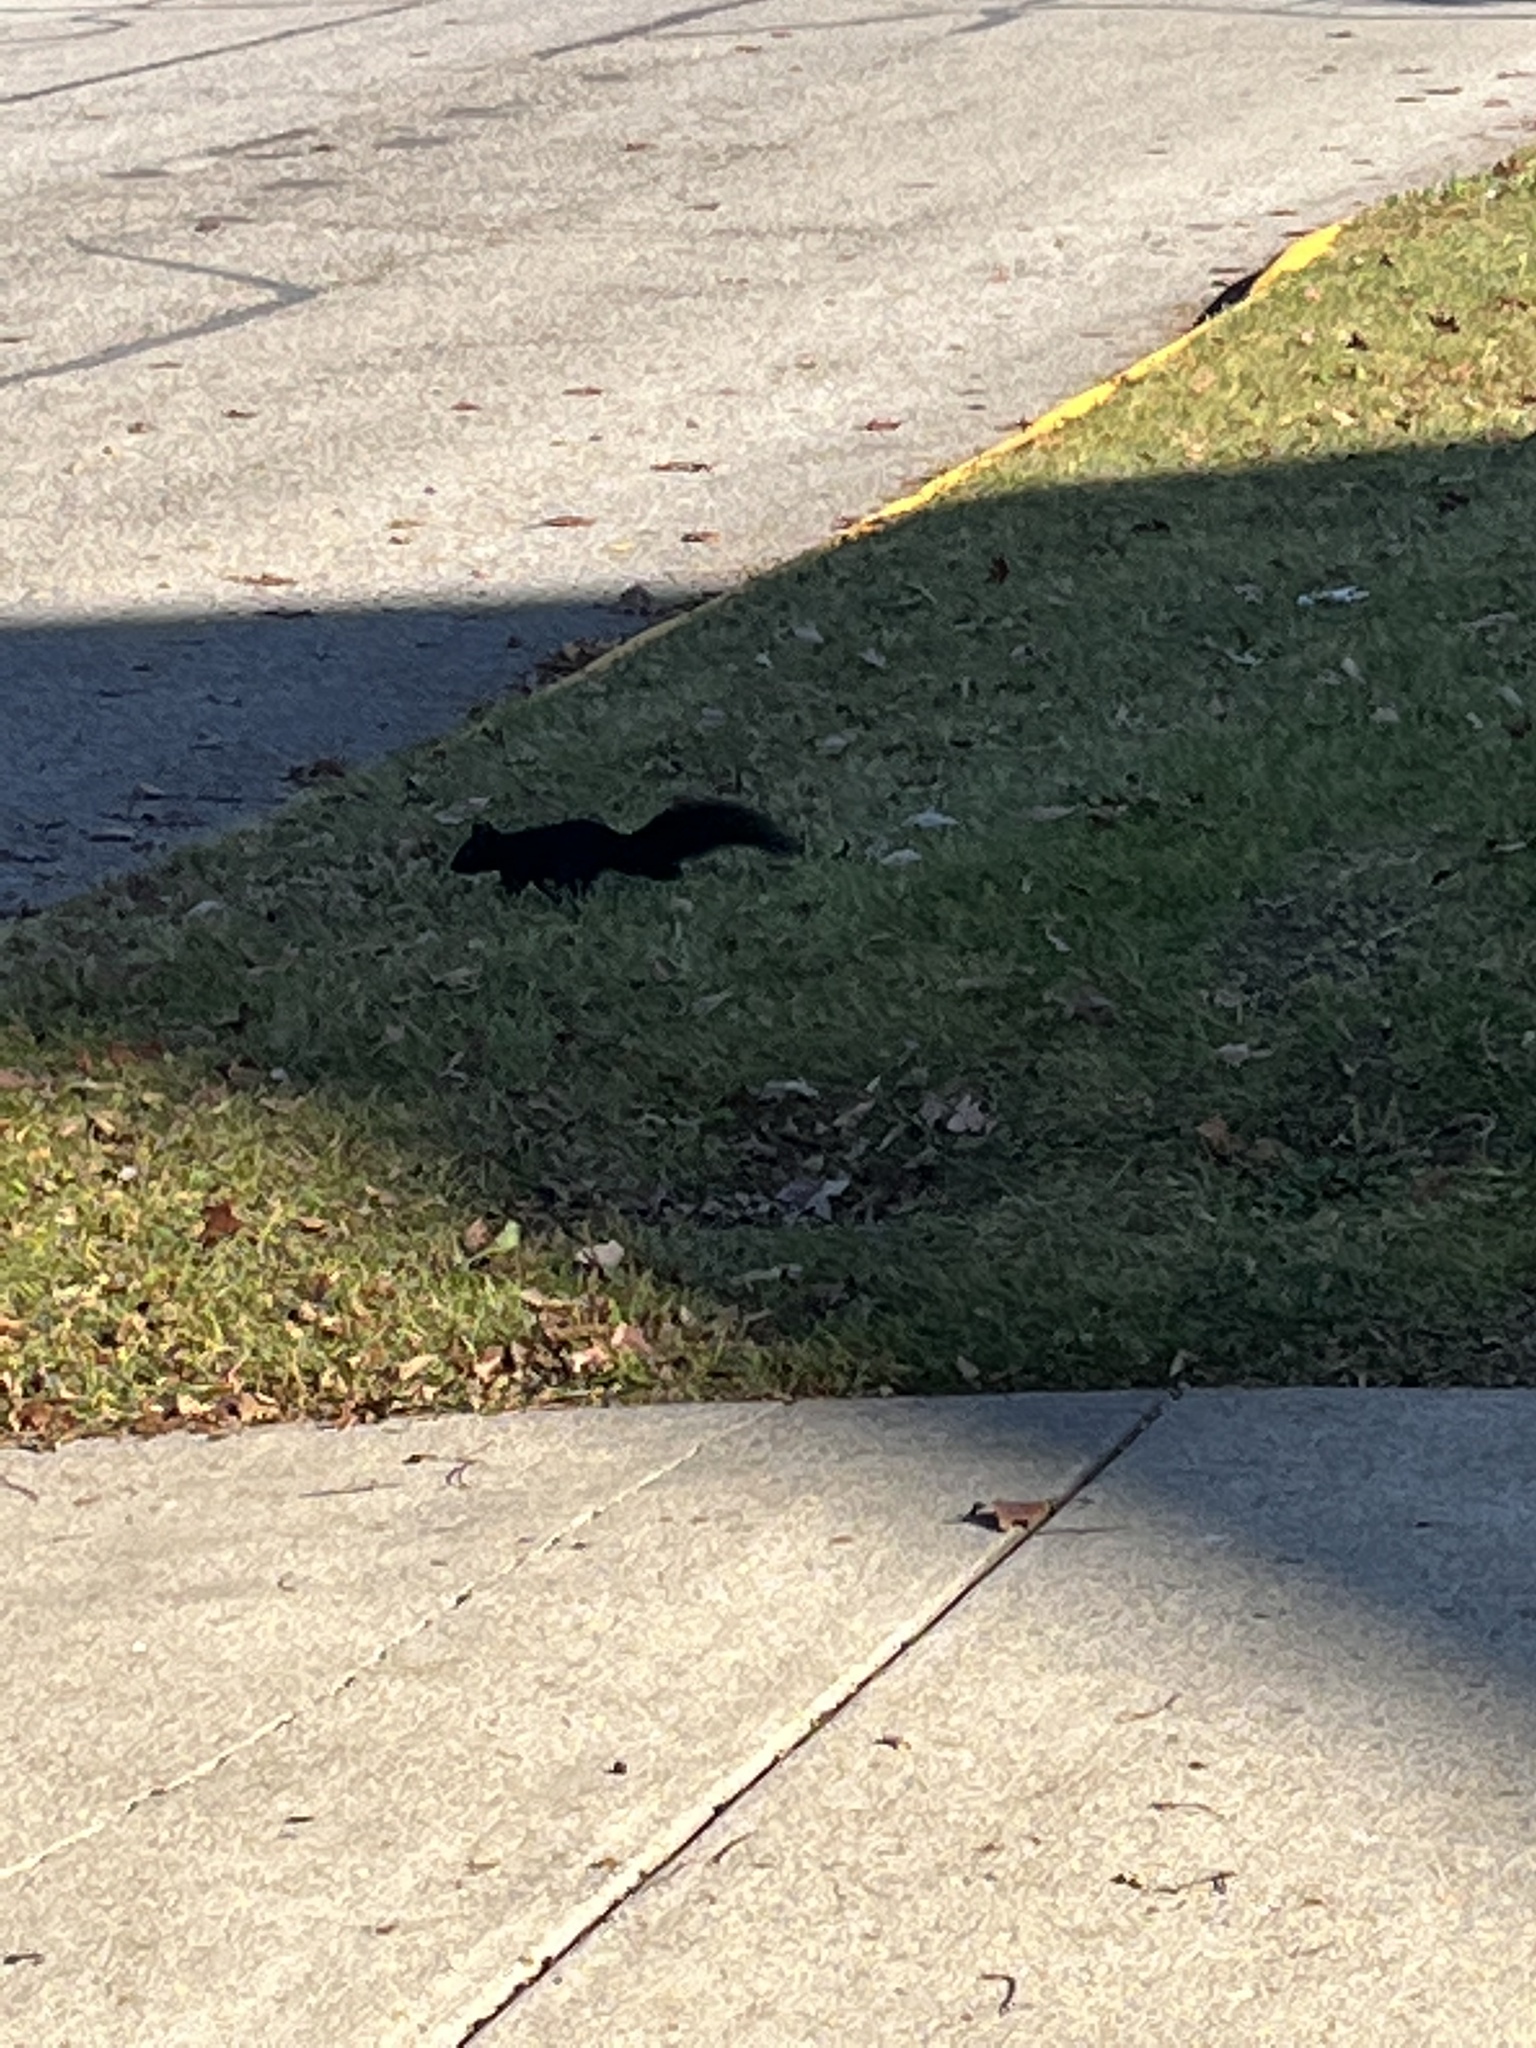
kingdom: Animalia
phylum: Chordata
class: Mammalia
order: Rodentia
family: Sciuridae
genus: Sciurus
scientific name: Sciurus carolinensis
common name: Eastern gray squirrel
